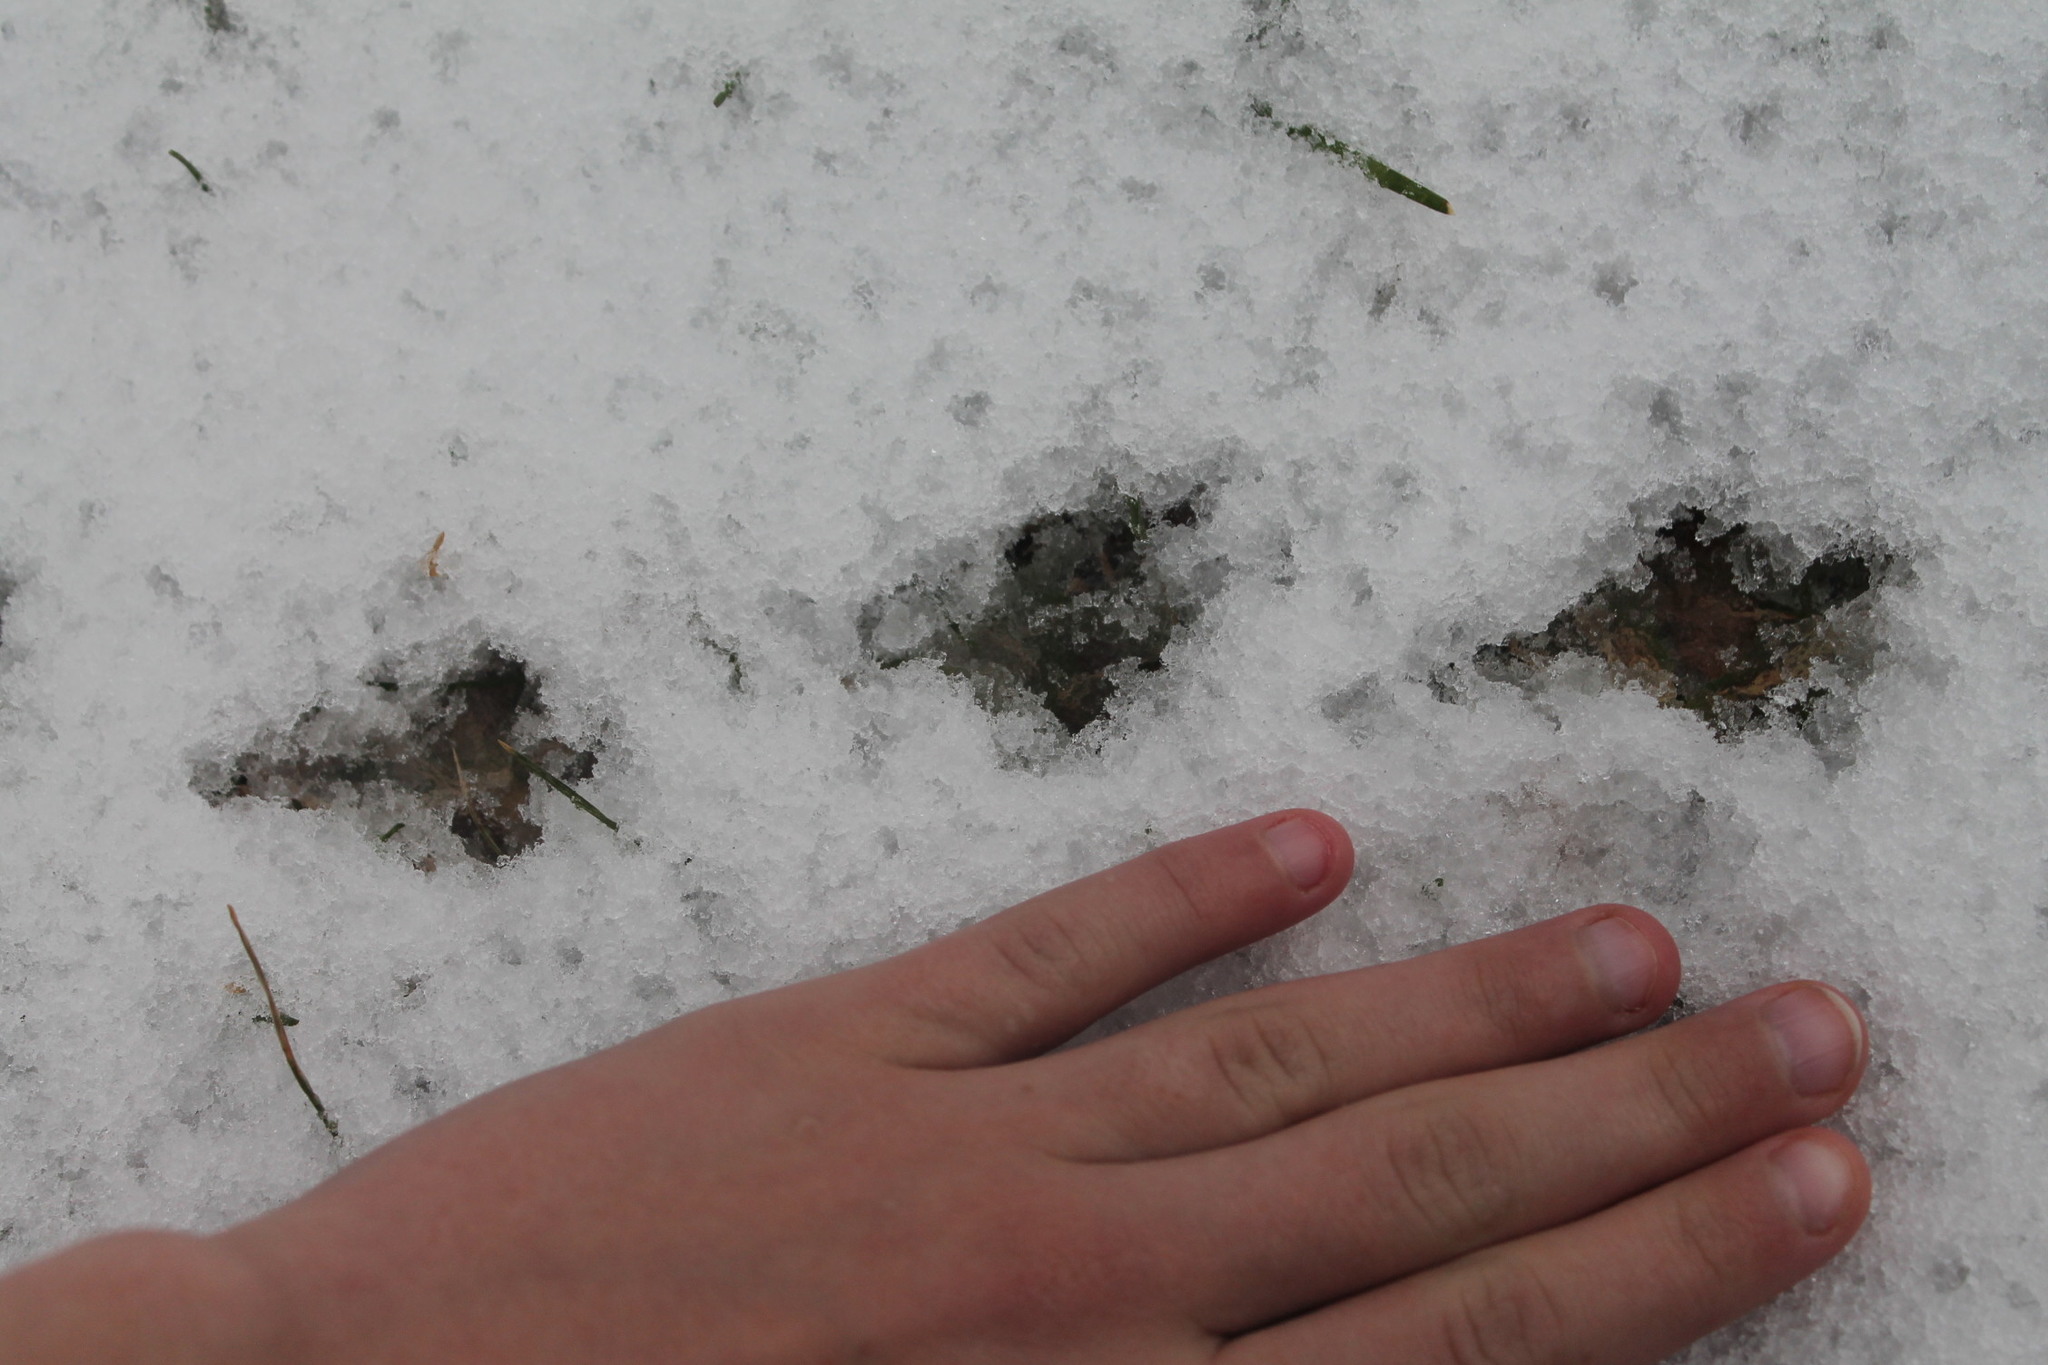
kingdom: Animalia
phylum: Chordata
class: Aves
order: Columbiformes
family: Columbidae
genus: Zenaida
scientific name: Zenaida macroura
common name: Mourning dove
